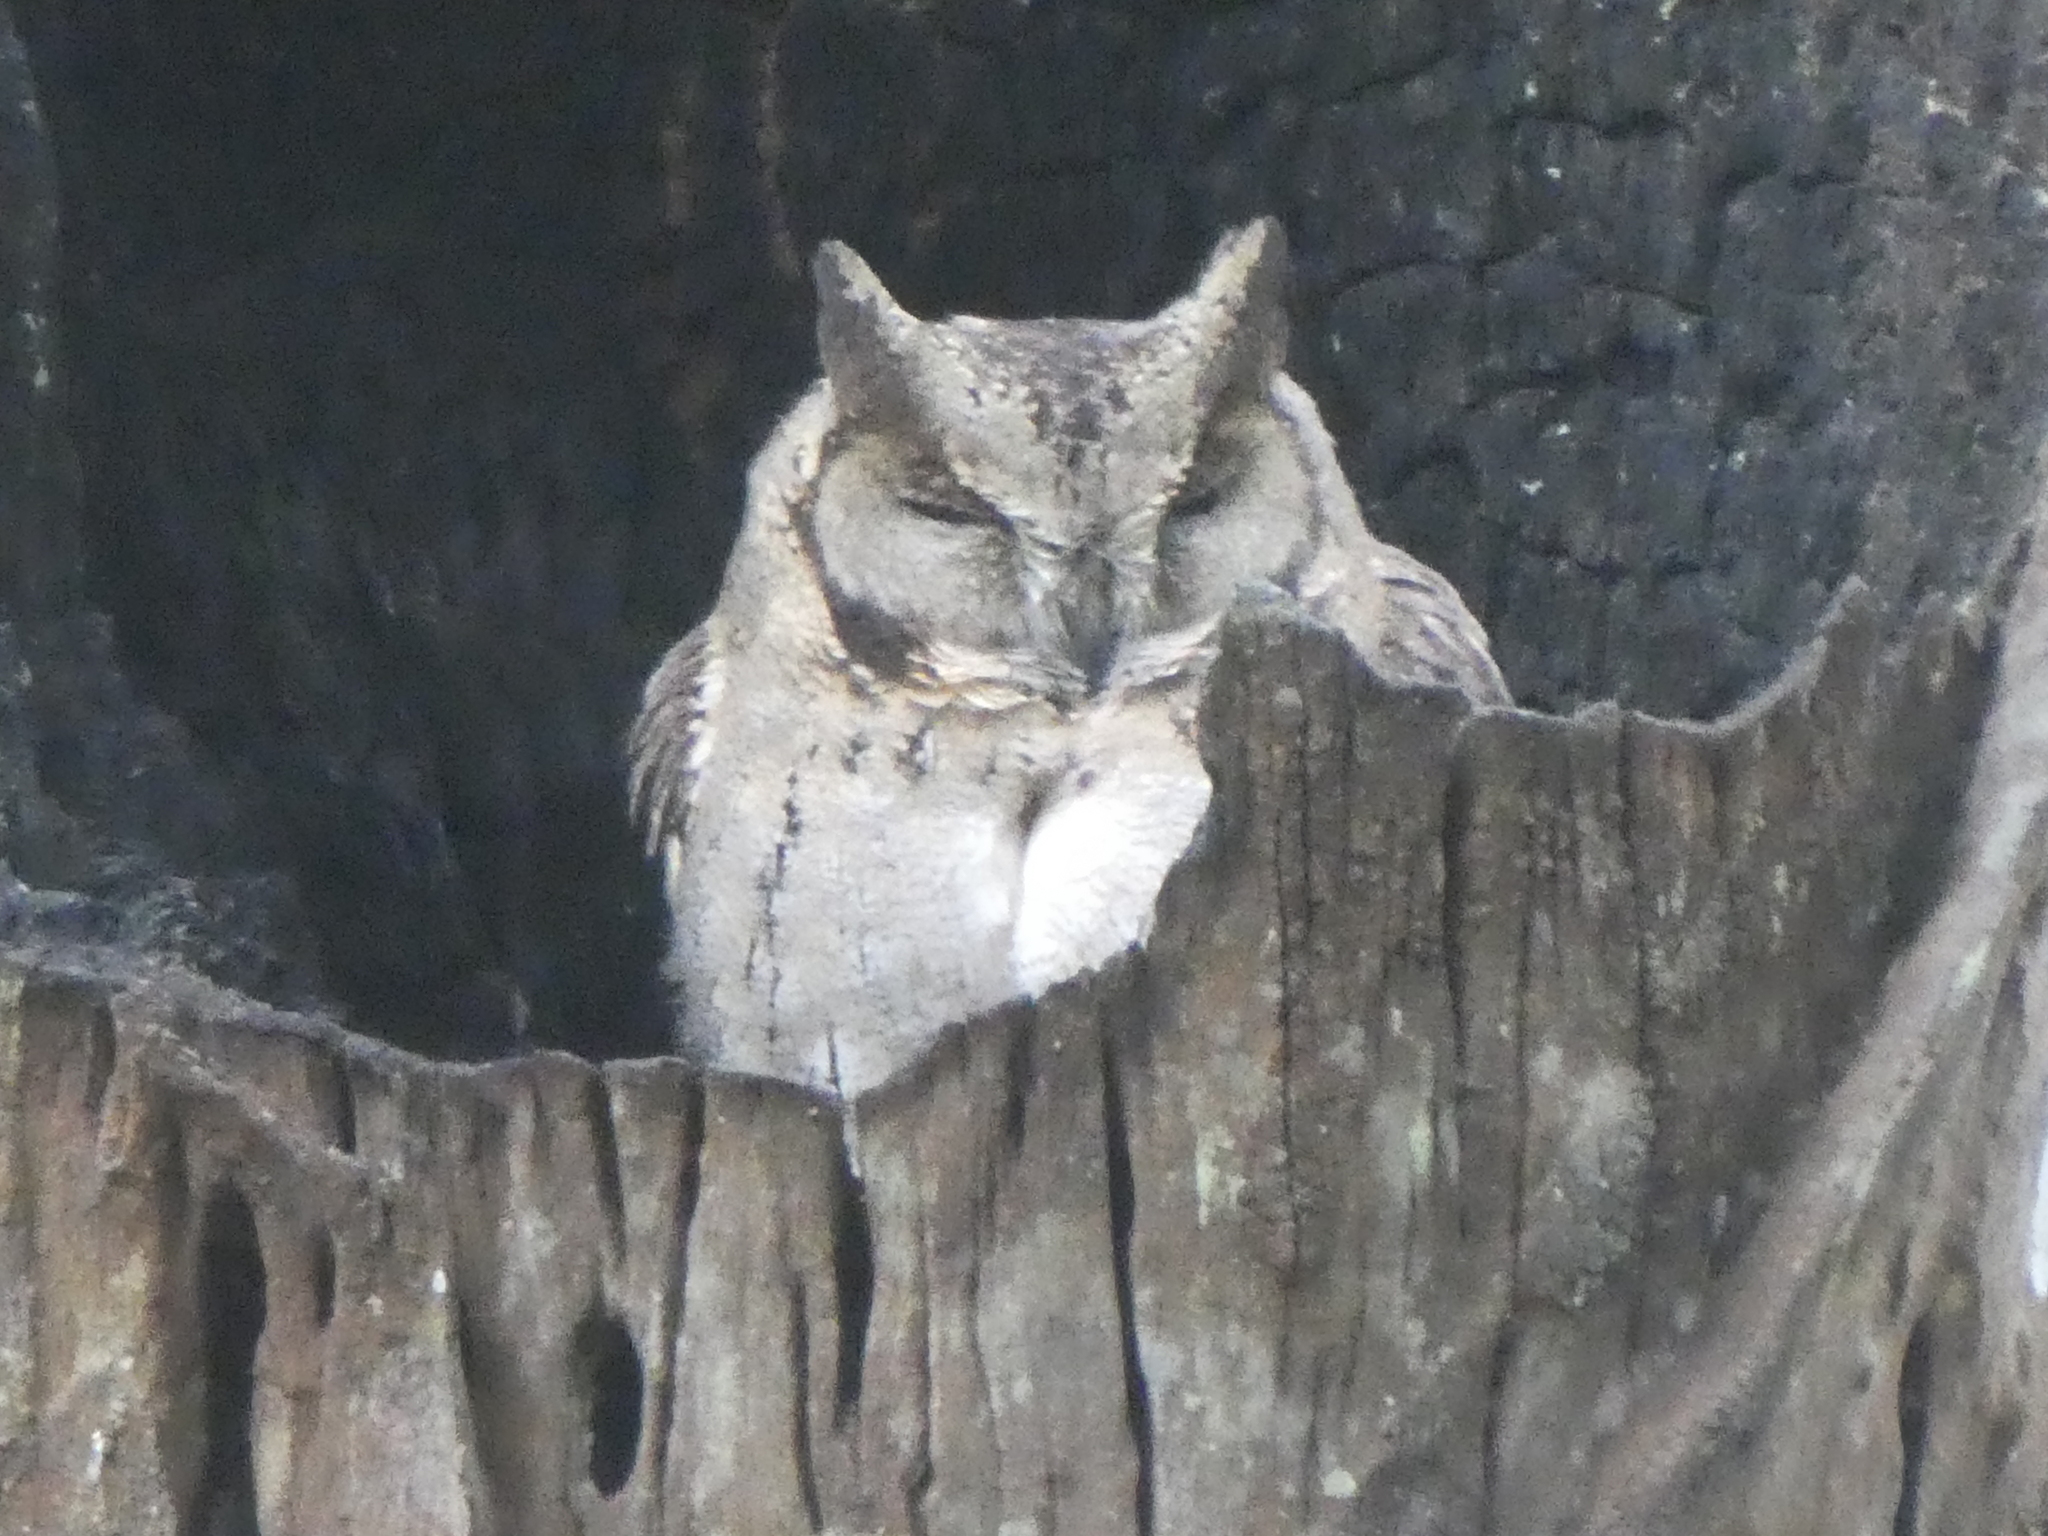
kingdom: Animalia
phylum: Chordata
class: Aves
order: Strigiformes
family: Strigidae
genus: Otus
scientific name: Otus bakkamoena
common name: Indian scops owl
